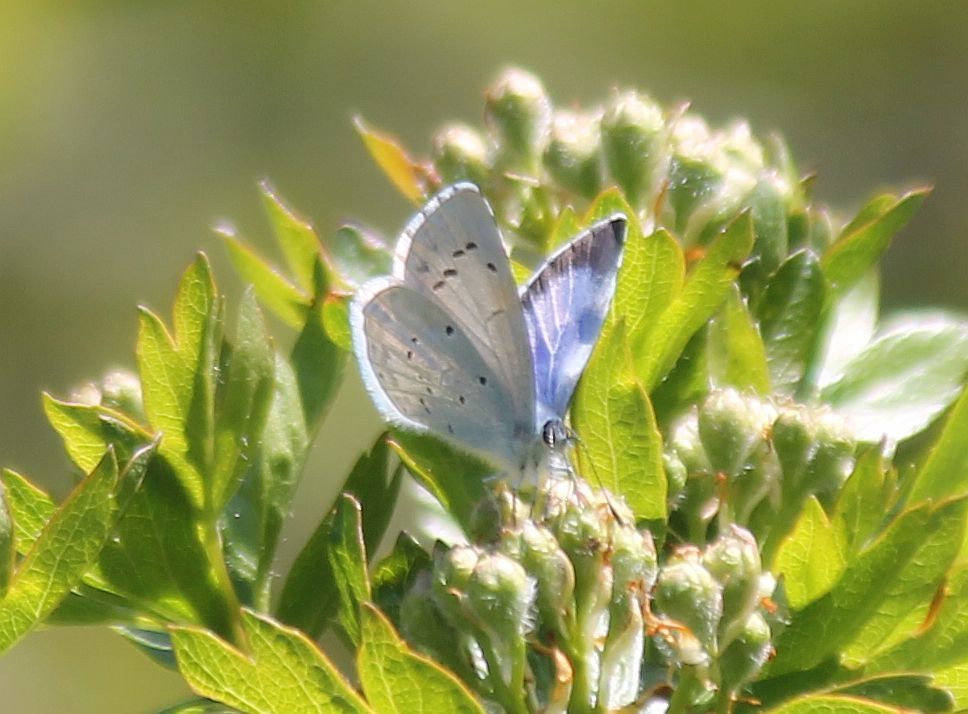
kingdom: Animalia
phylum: Arthropoda
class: Insecta
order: Lepidoptera
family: Lycaenidae
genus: Celastrina
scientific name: Celastrina argiolus
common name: Holly blue
